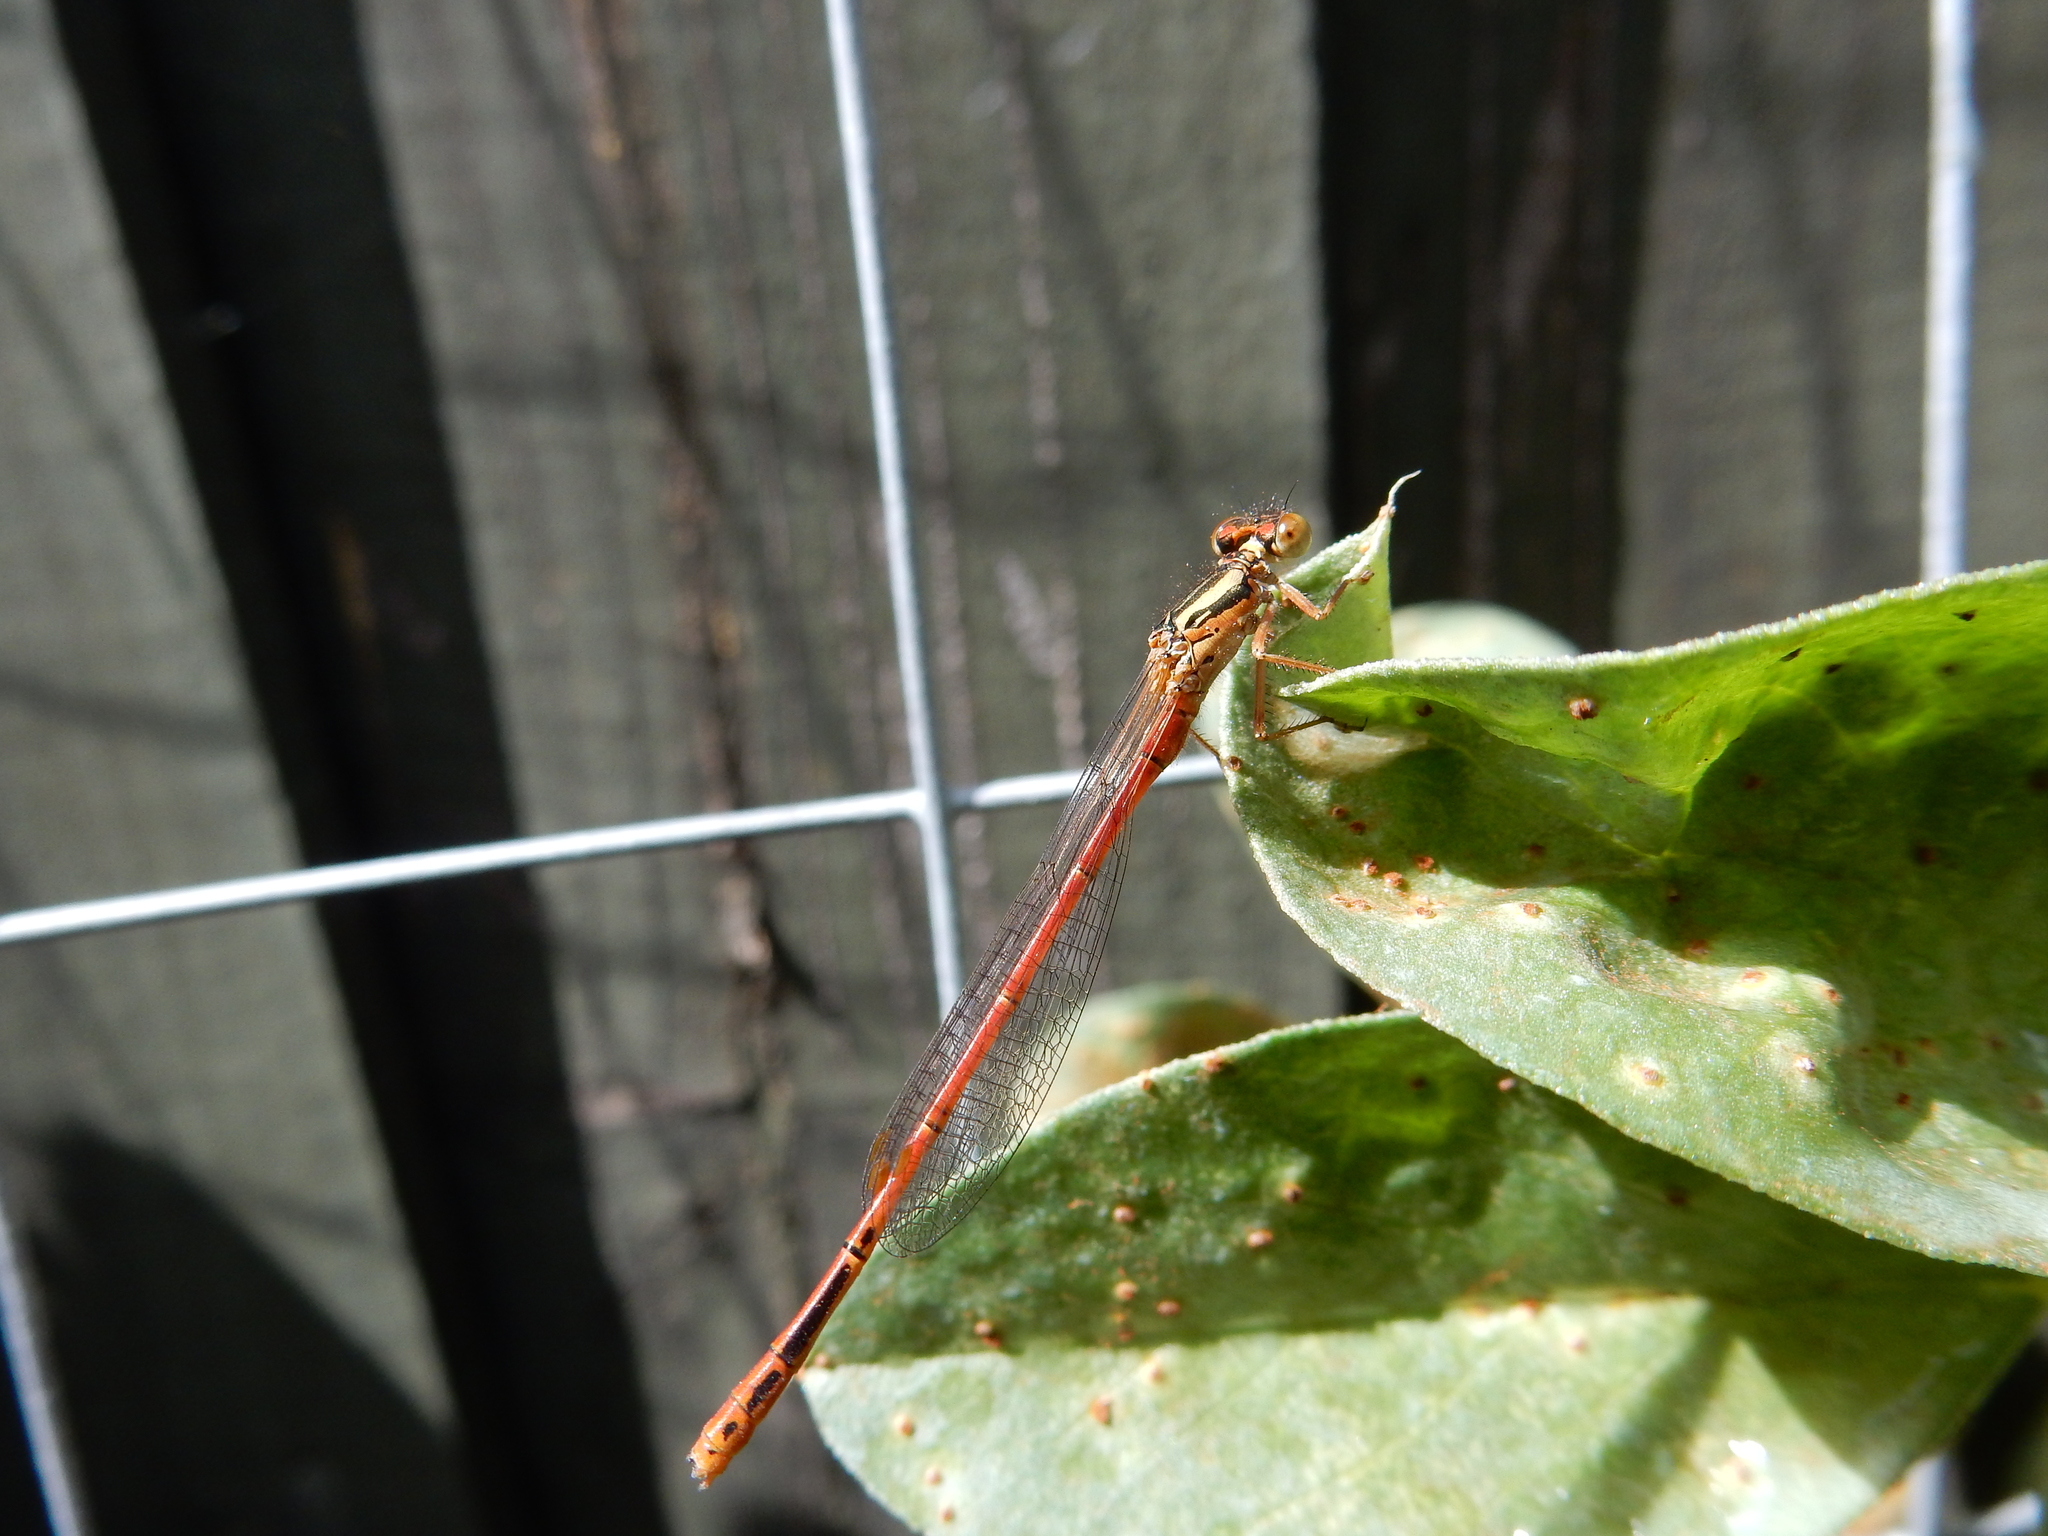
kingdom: Animalia
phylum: Arthropoda
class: Insecta
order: Odonata
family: Coenagrionidae
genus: Xanthocnemis
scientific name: Xanthocnemis zealandica
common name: Common redcoat damselfly
